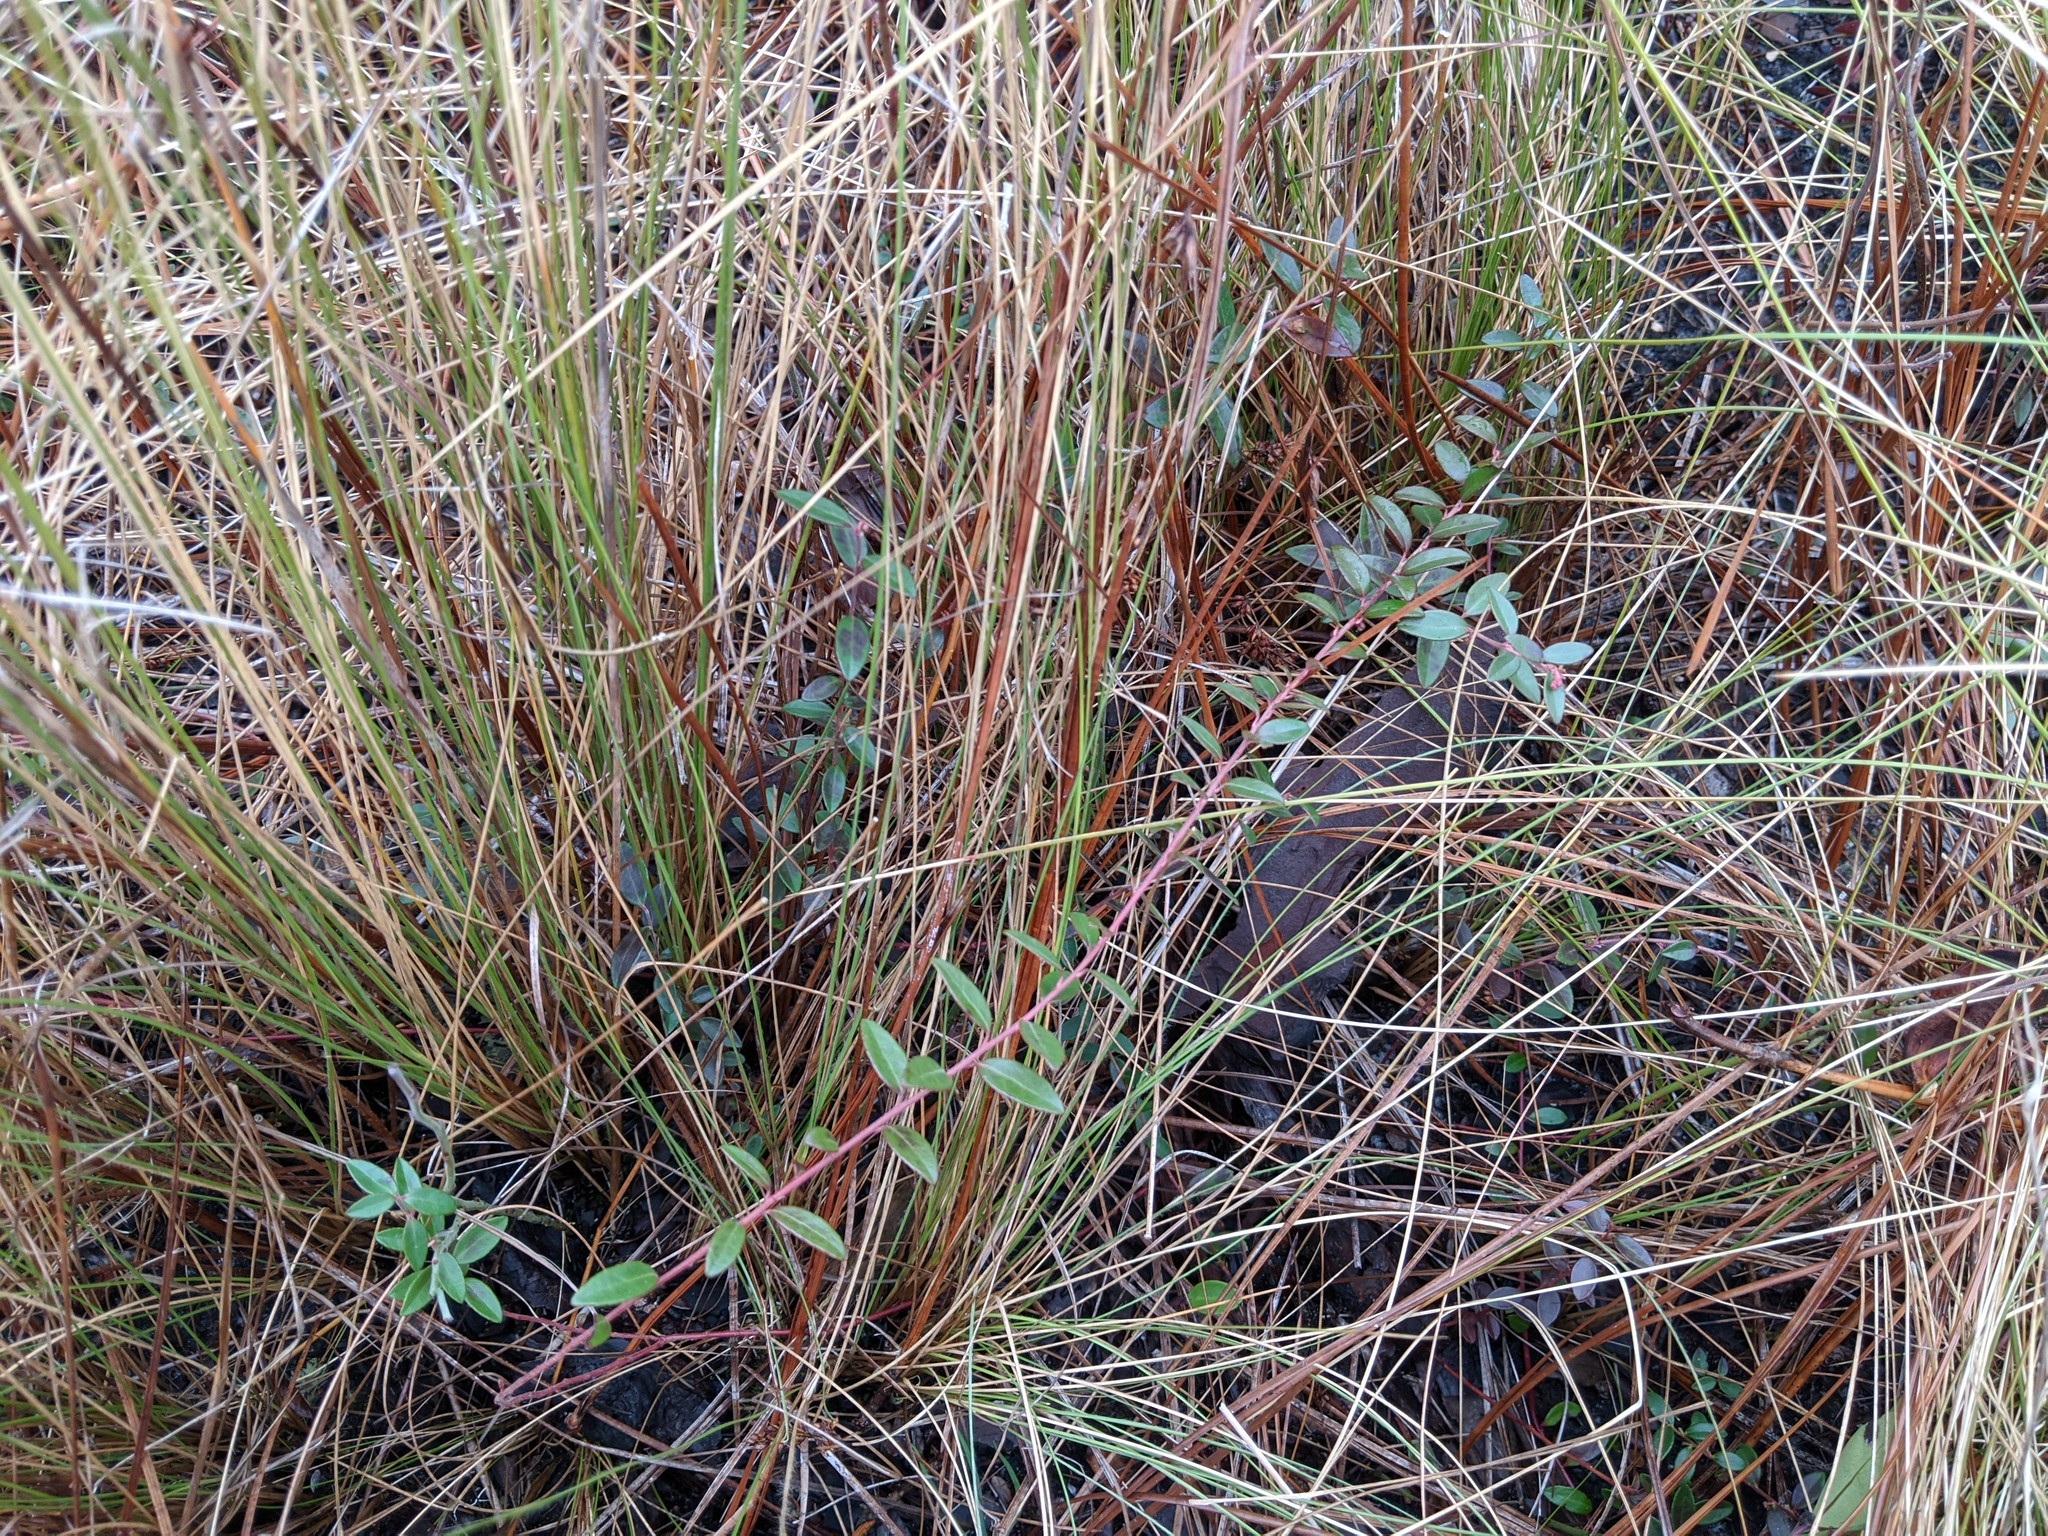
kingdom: Plantae
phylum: Tracheophyta
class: Magnoliopsida
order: Ericales
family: Ericaceae
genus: Vaccinium
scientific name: Vaccinium crassifolium
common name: Creeping blueberry
